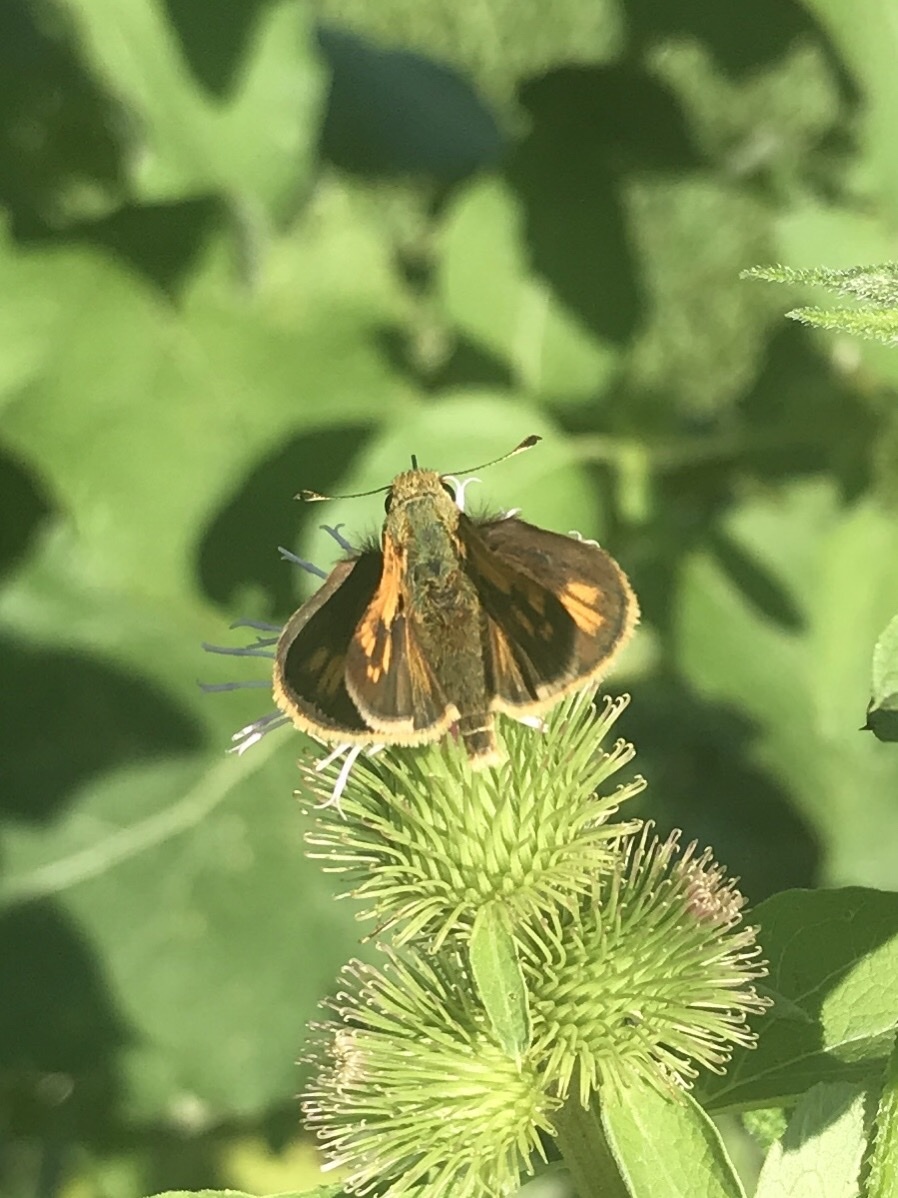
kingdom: Animalia
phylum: Arthropoda
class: Insecta
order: Lepidoptera
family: Hesperiidae
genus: Polites
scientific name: Polites coras
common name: Peck's skipper
